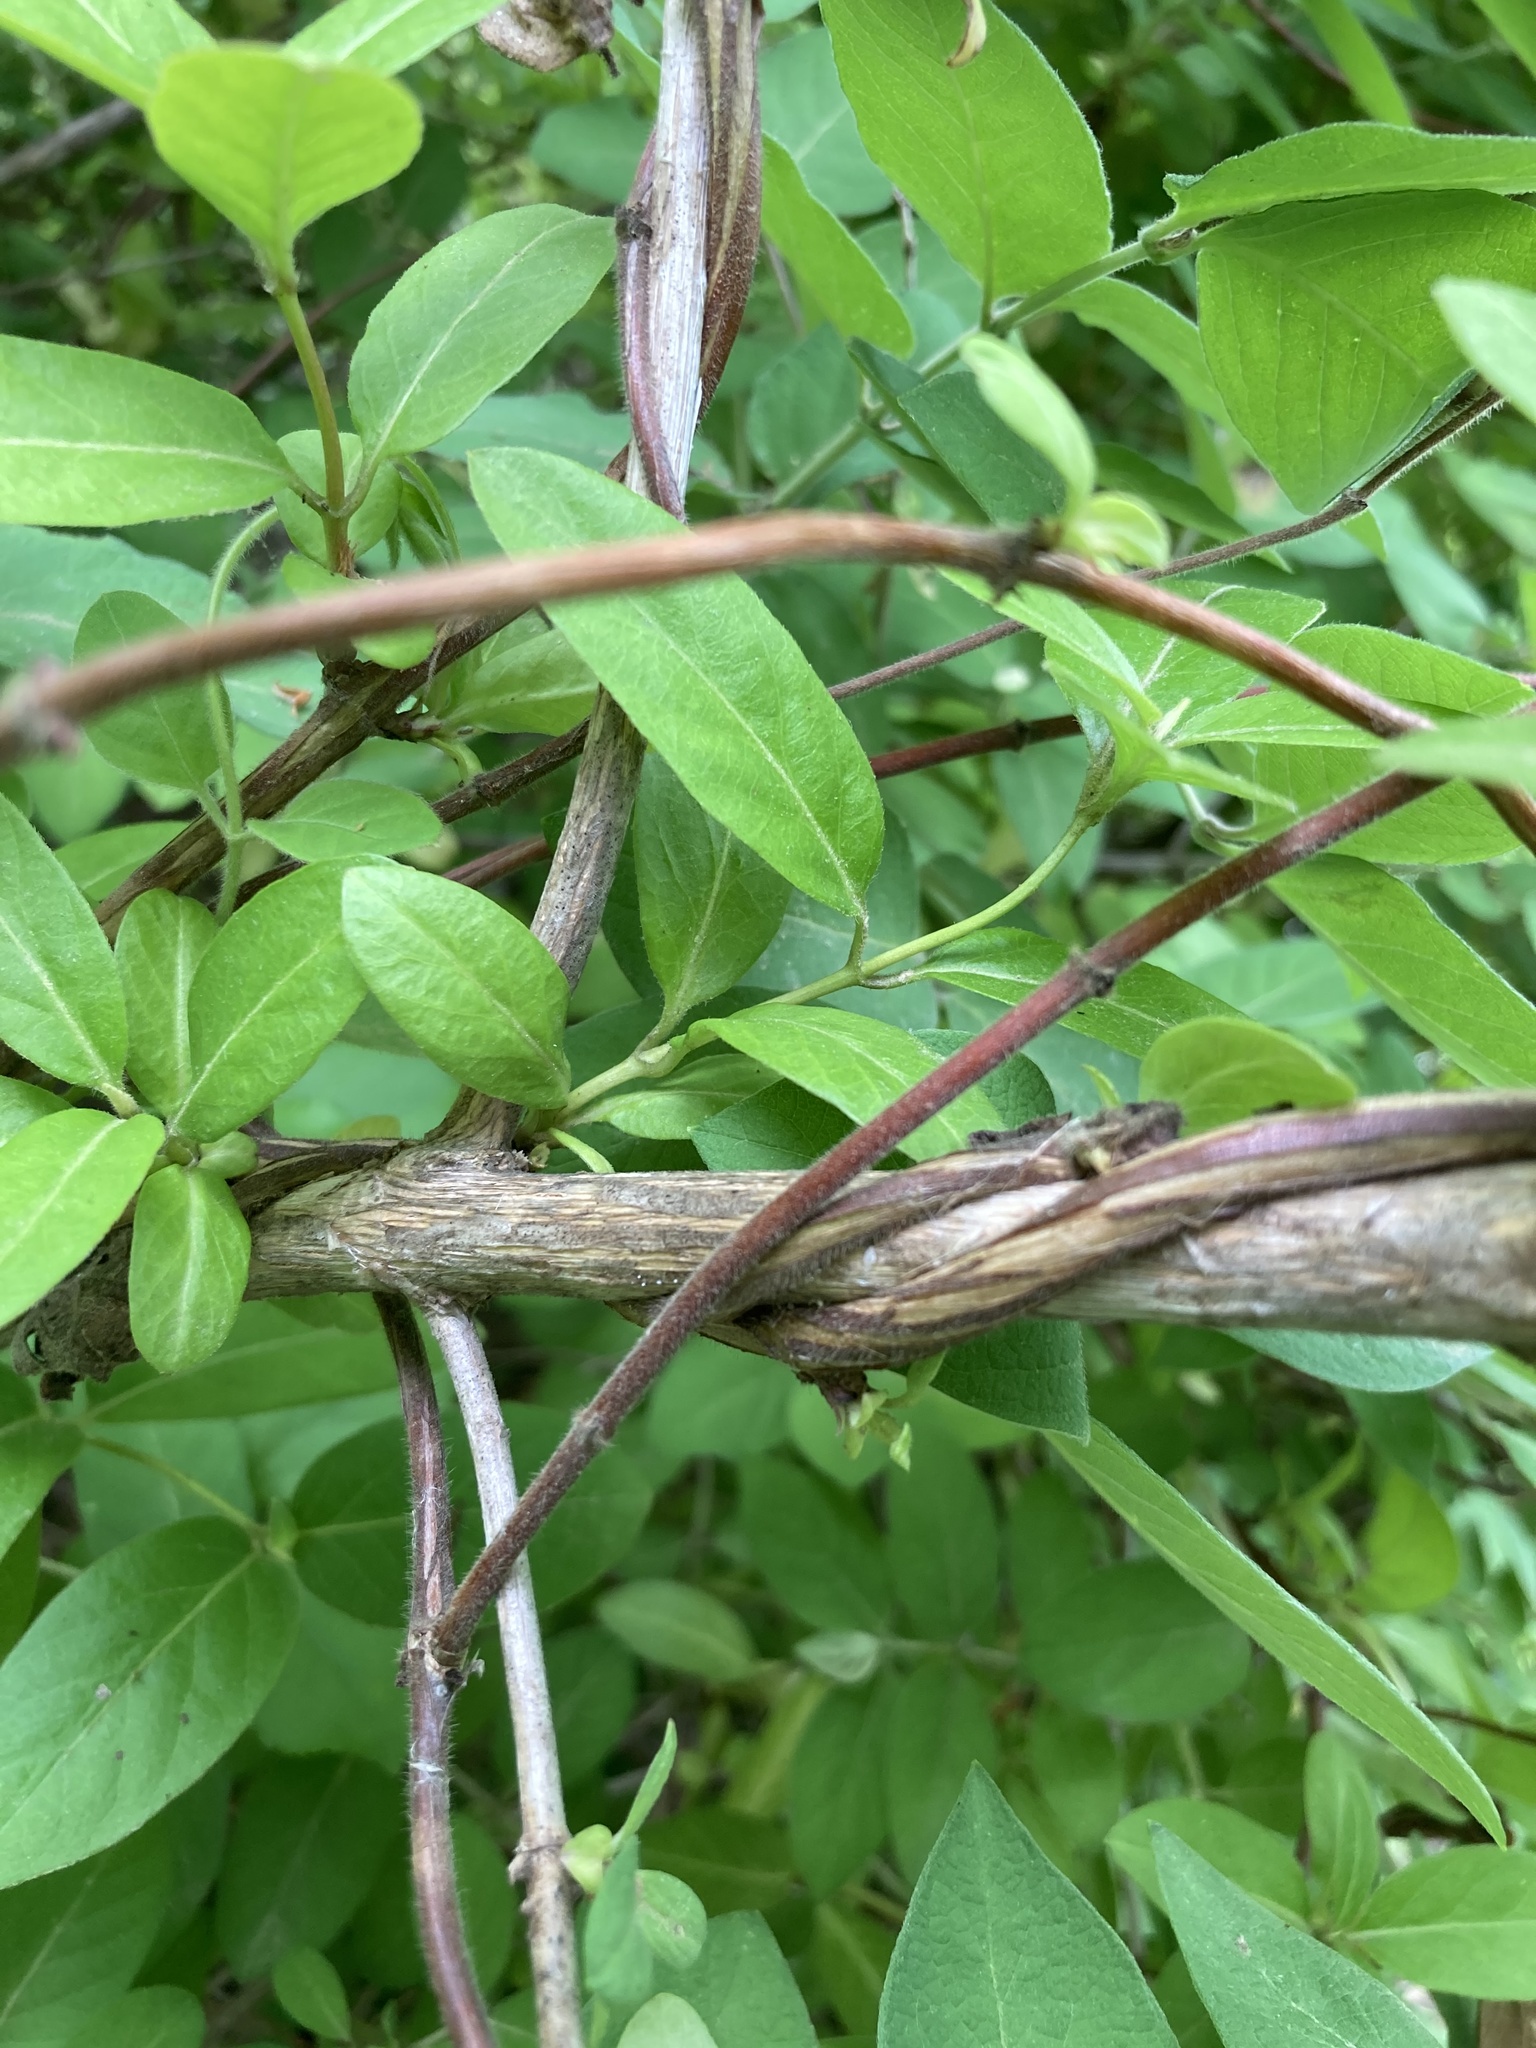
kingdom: Plantae
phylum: Tracheophyta
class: Magnoliopsida
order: Dipsacales
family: Caprifoliaceae
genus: Lonicera
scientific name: Lonicera japonica
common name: Japanese honeysuckle
